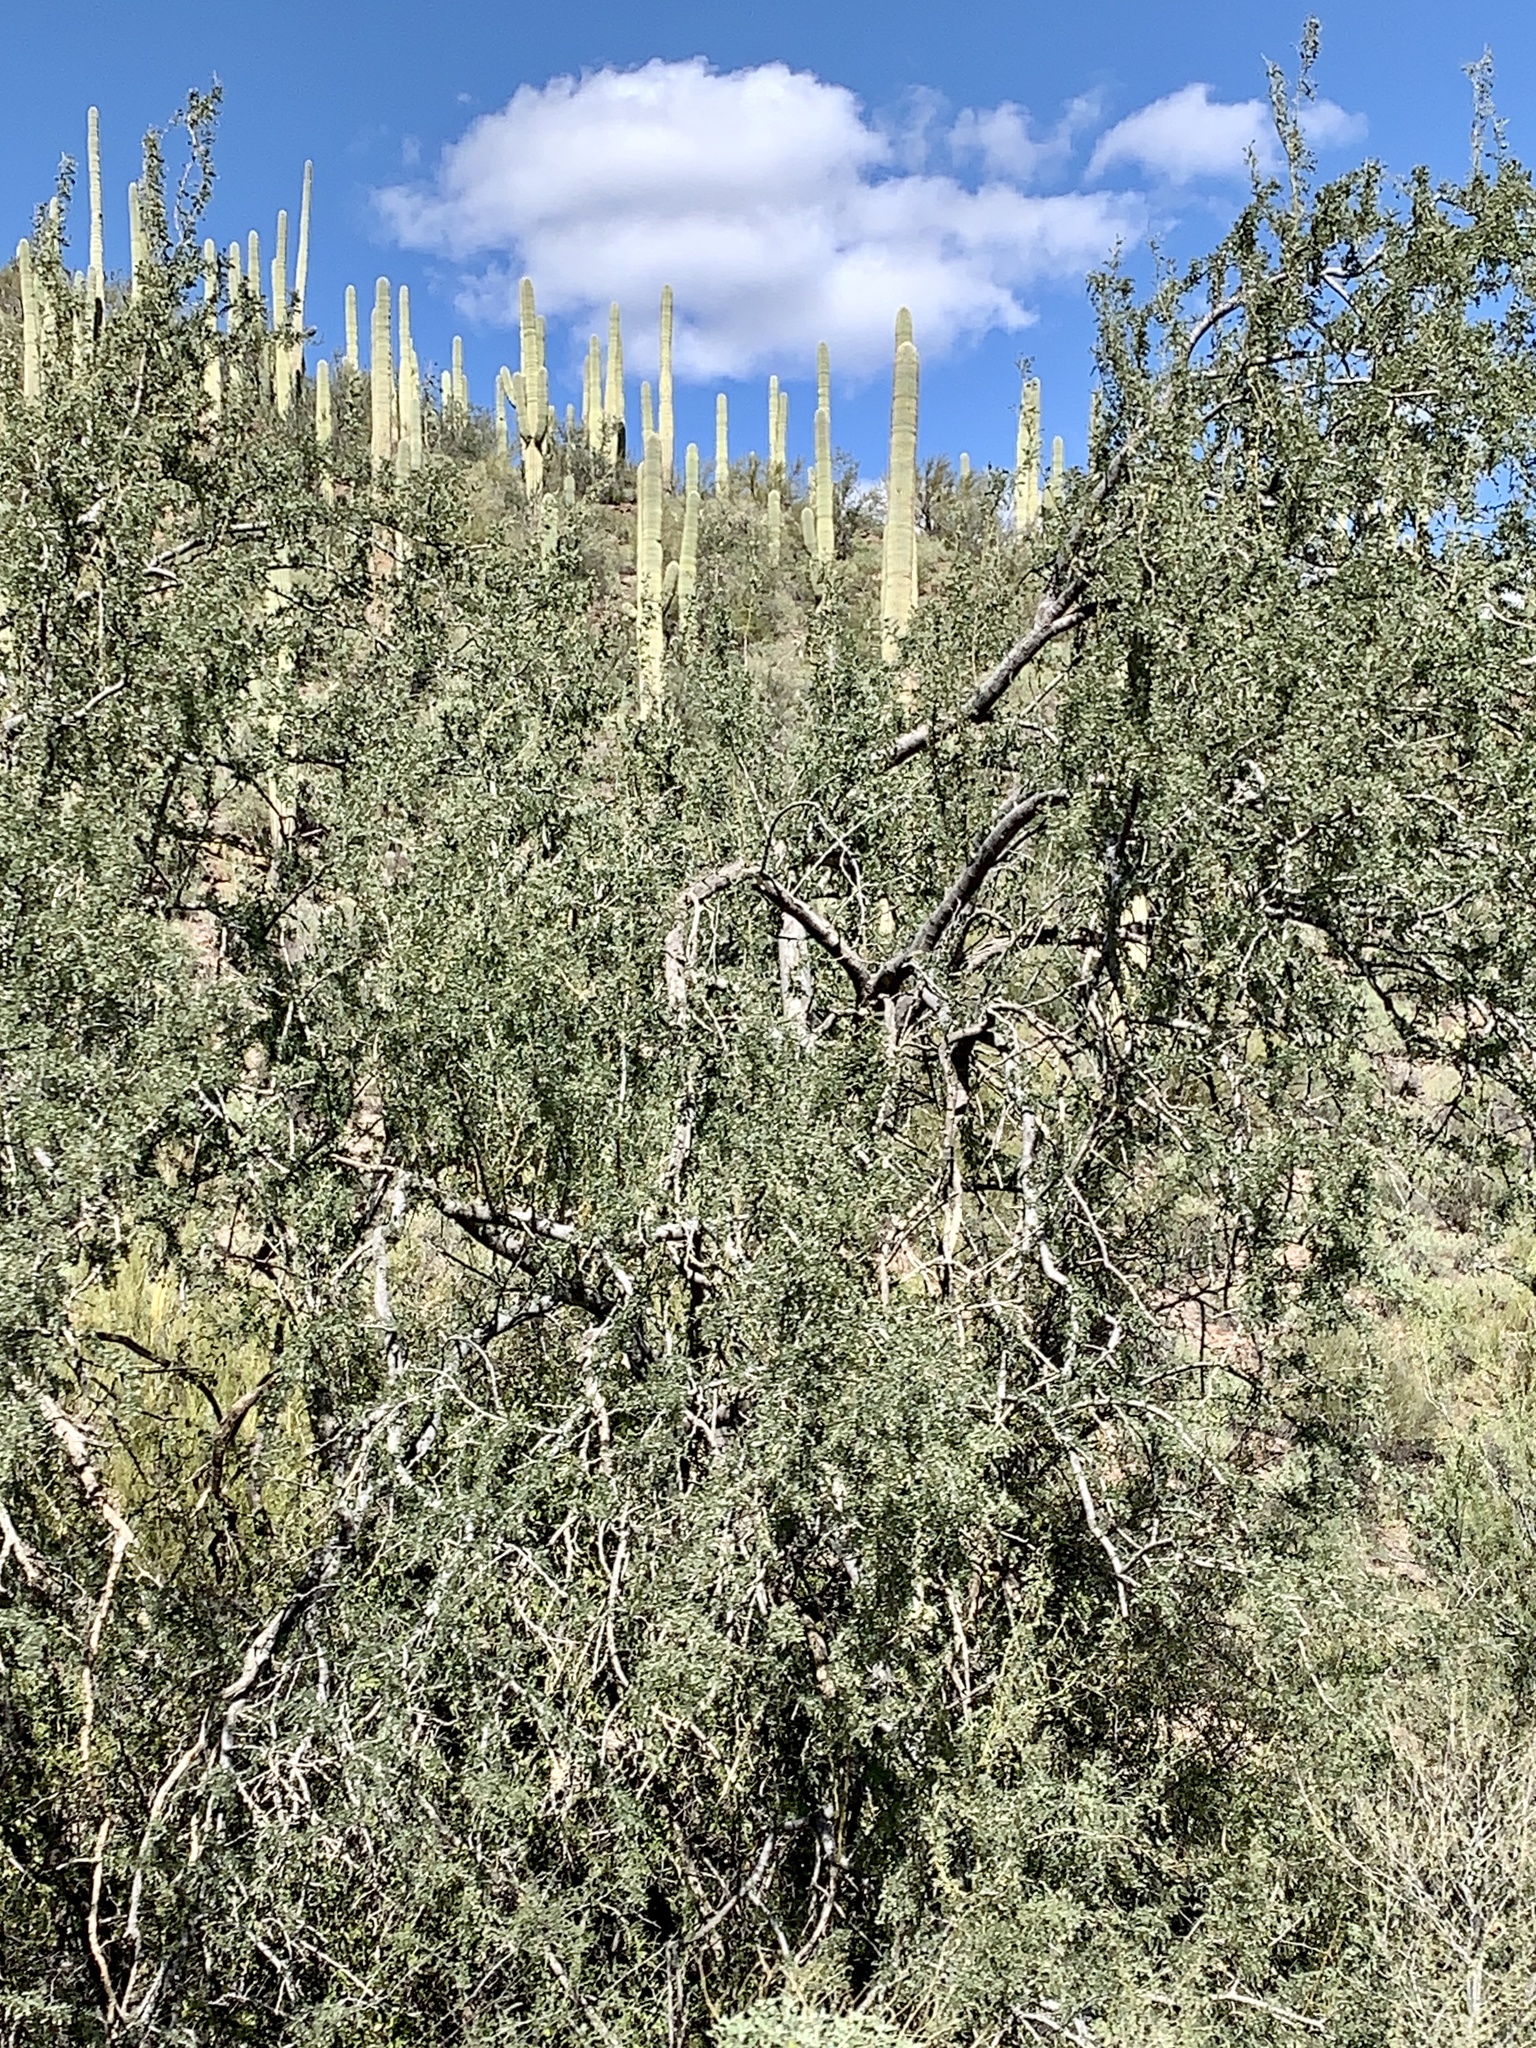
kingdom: Plantae
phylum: Tracheophyta
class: Magnoliopsida
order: Fabales
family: Fabaceae
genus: Olneya
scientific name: Olneya tesota
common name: Desert ironwood
